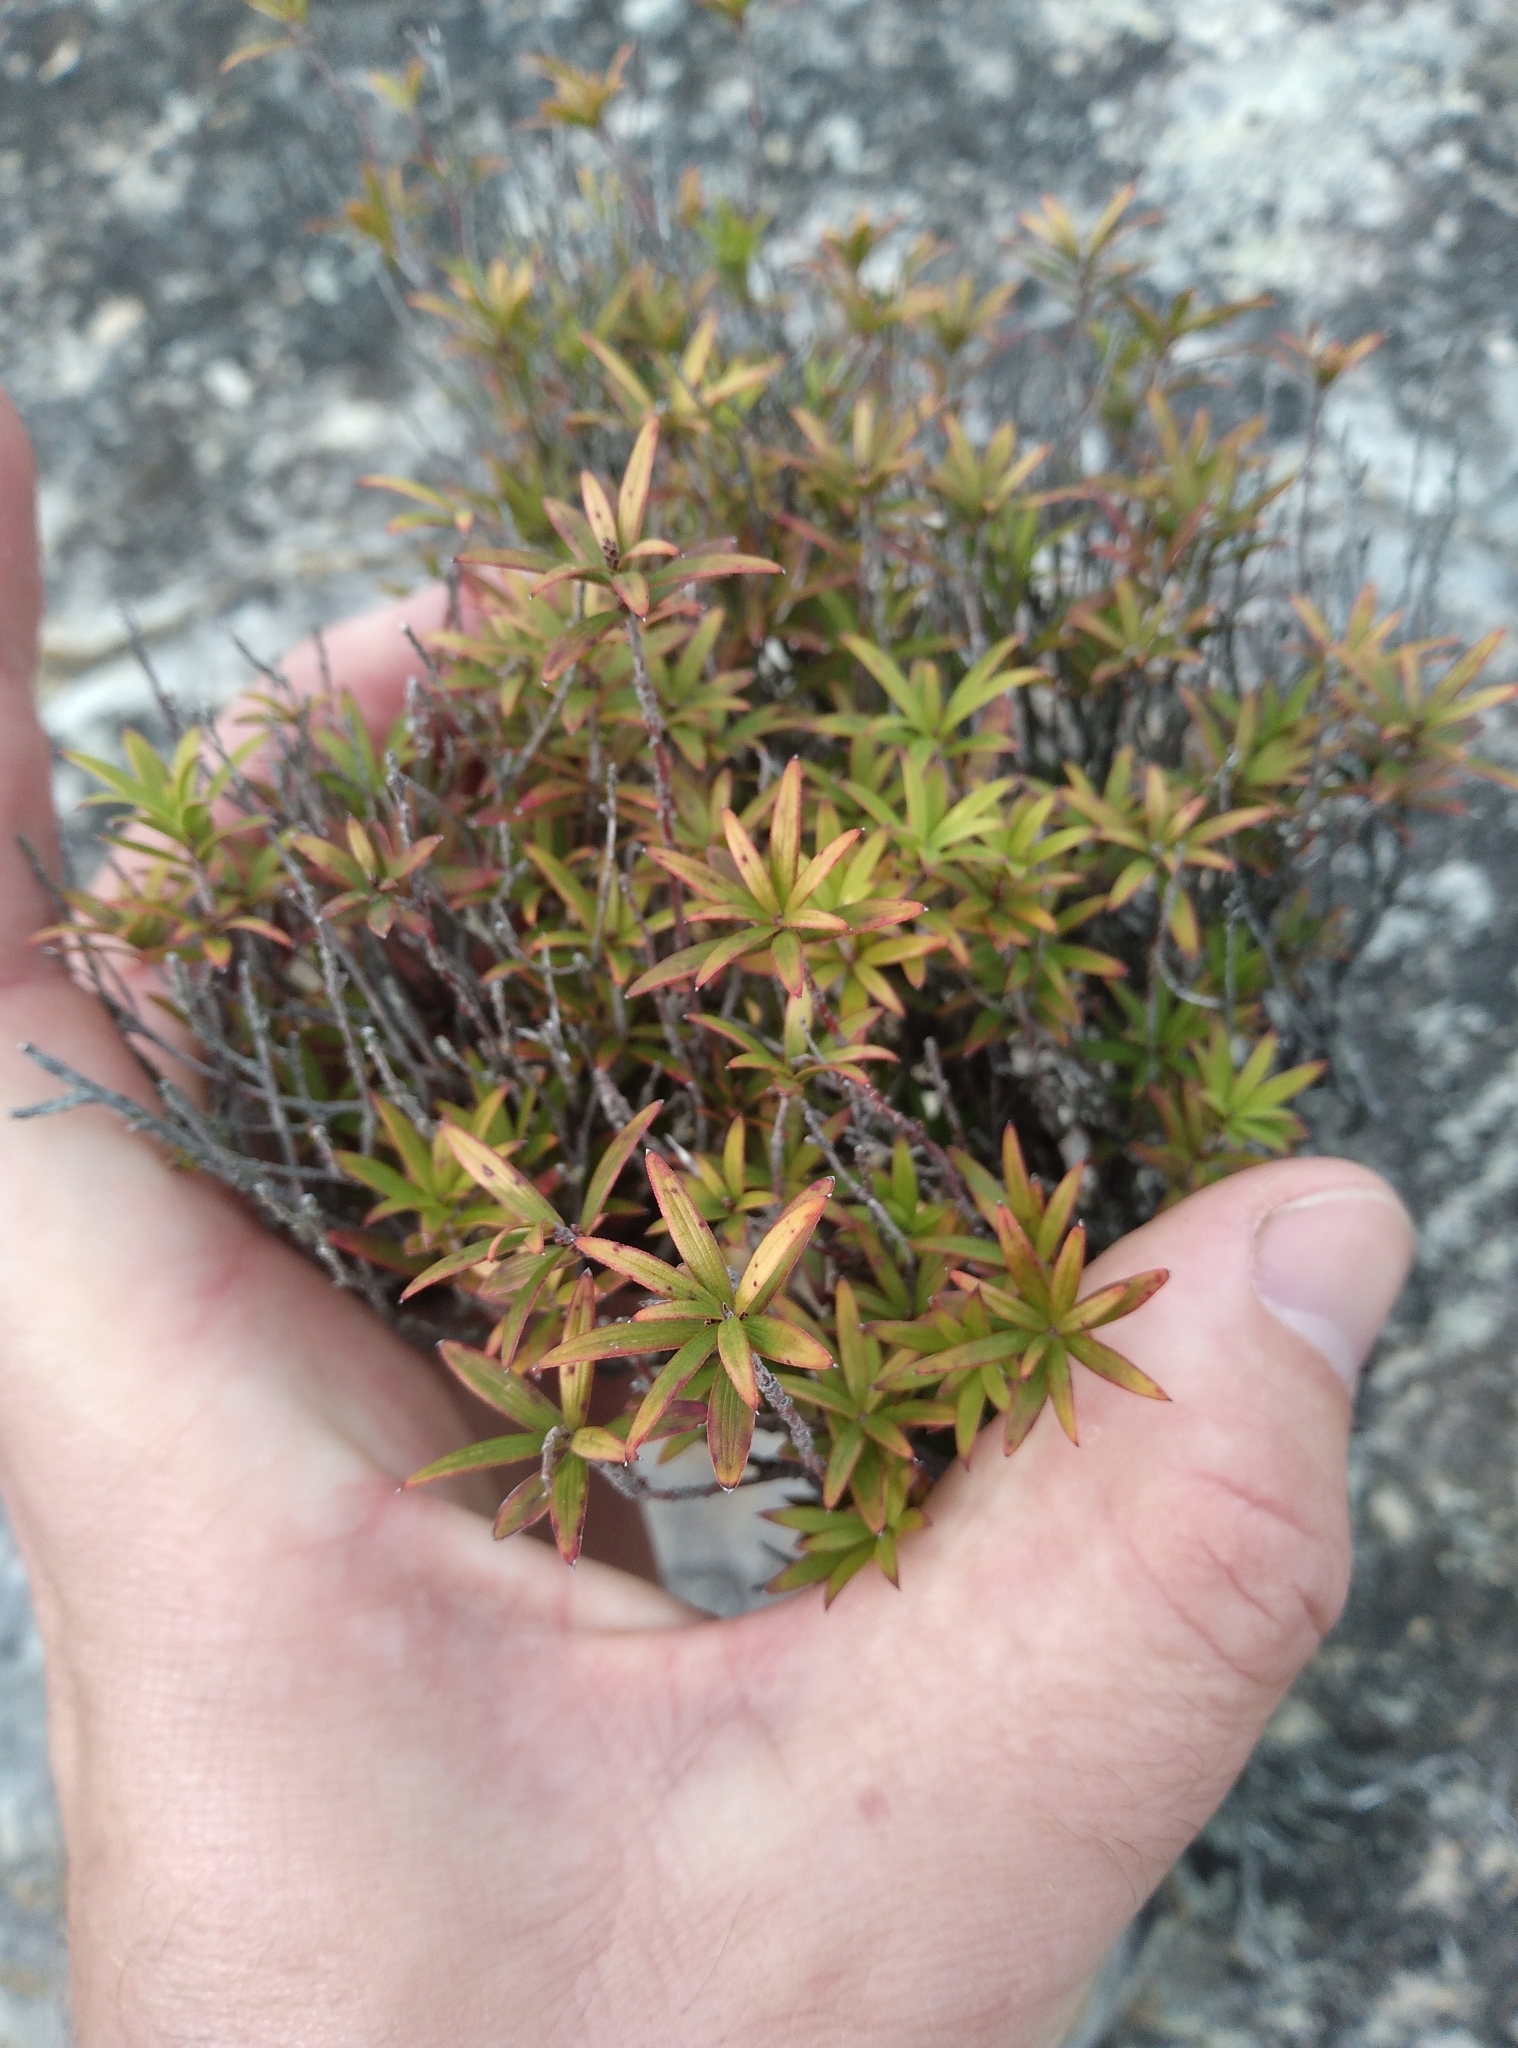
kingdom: Plantae
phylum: Tracheophyta
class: Magnoliopsida
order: Ericales
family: Ericaceae
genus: Leucopogon
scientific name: Leucopogon fasciculatus
